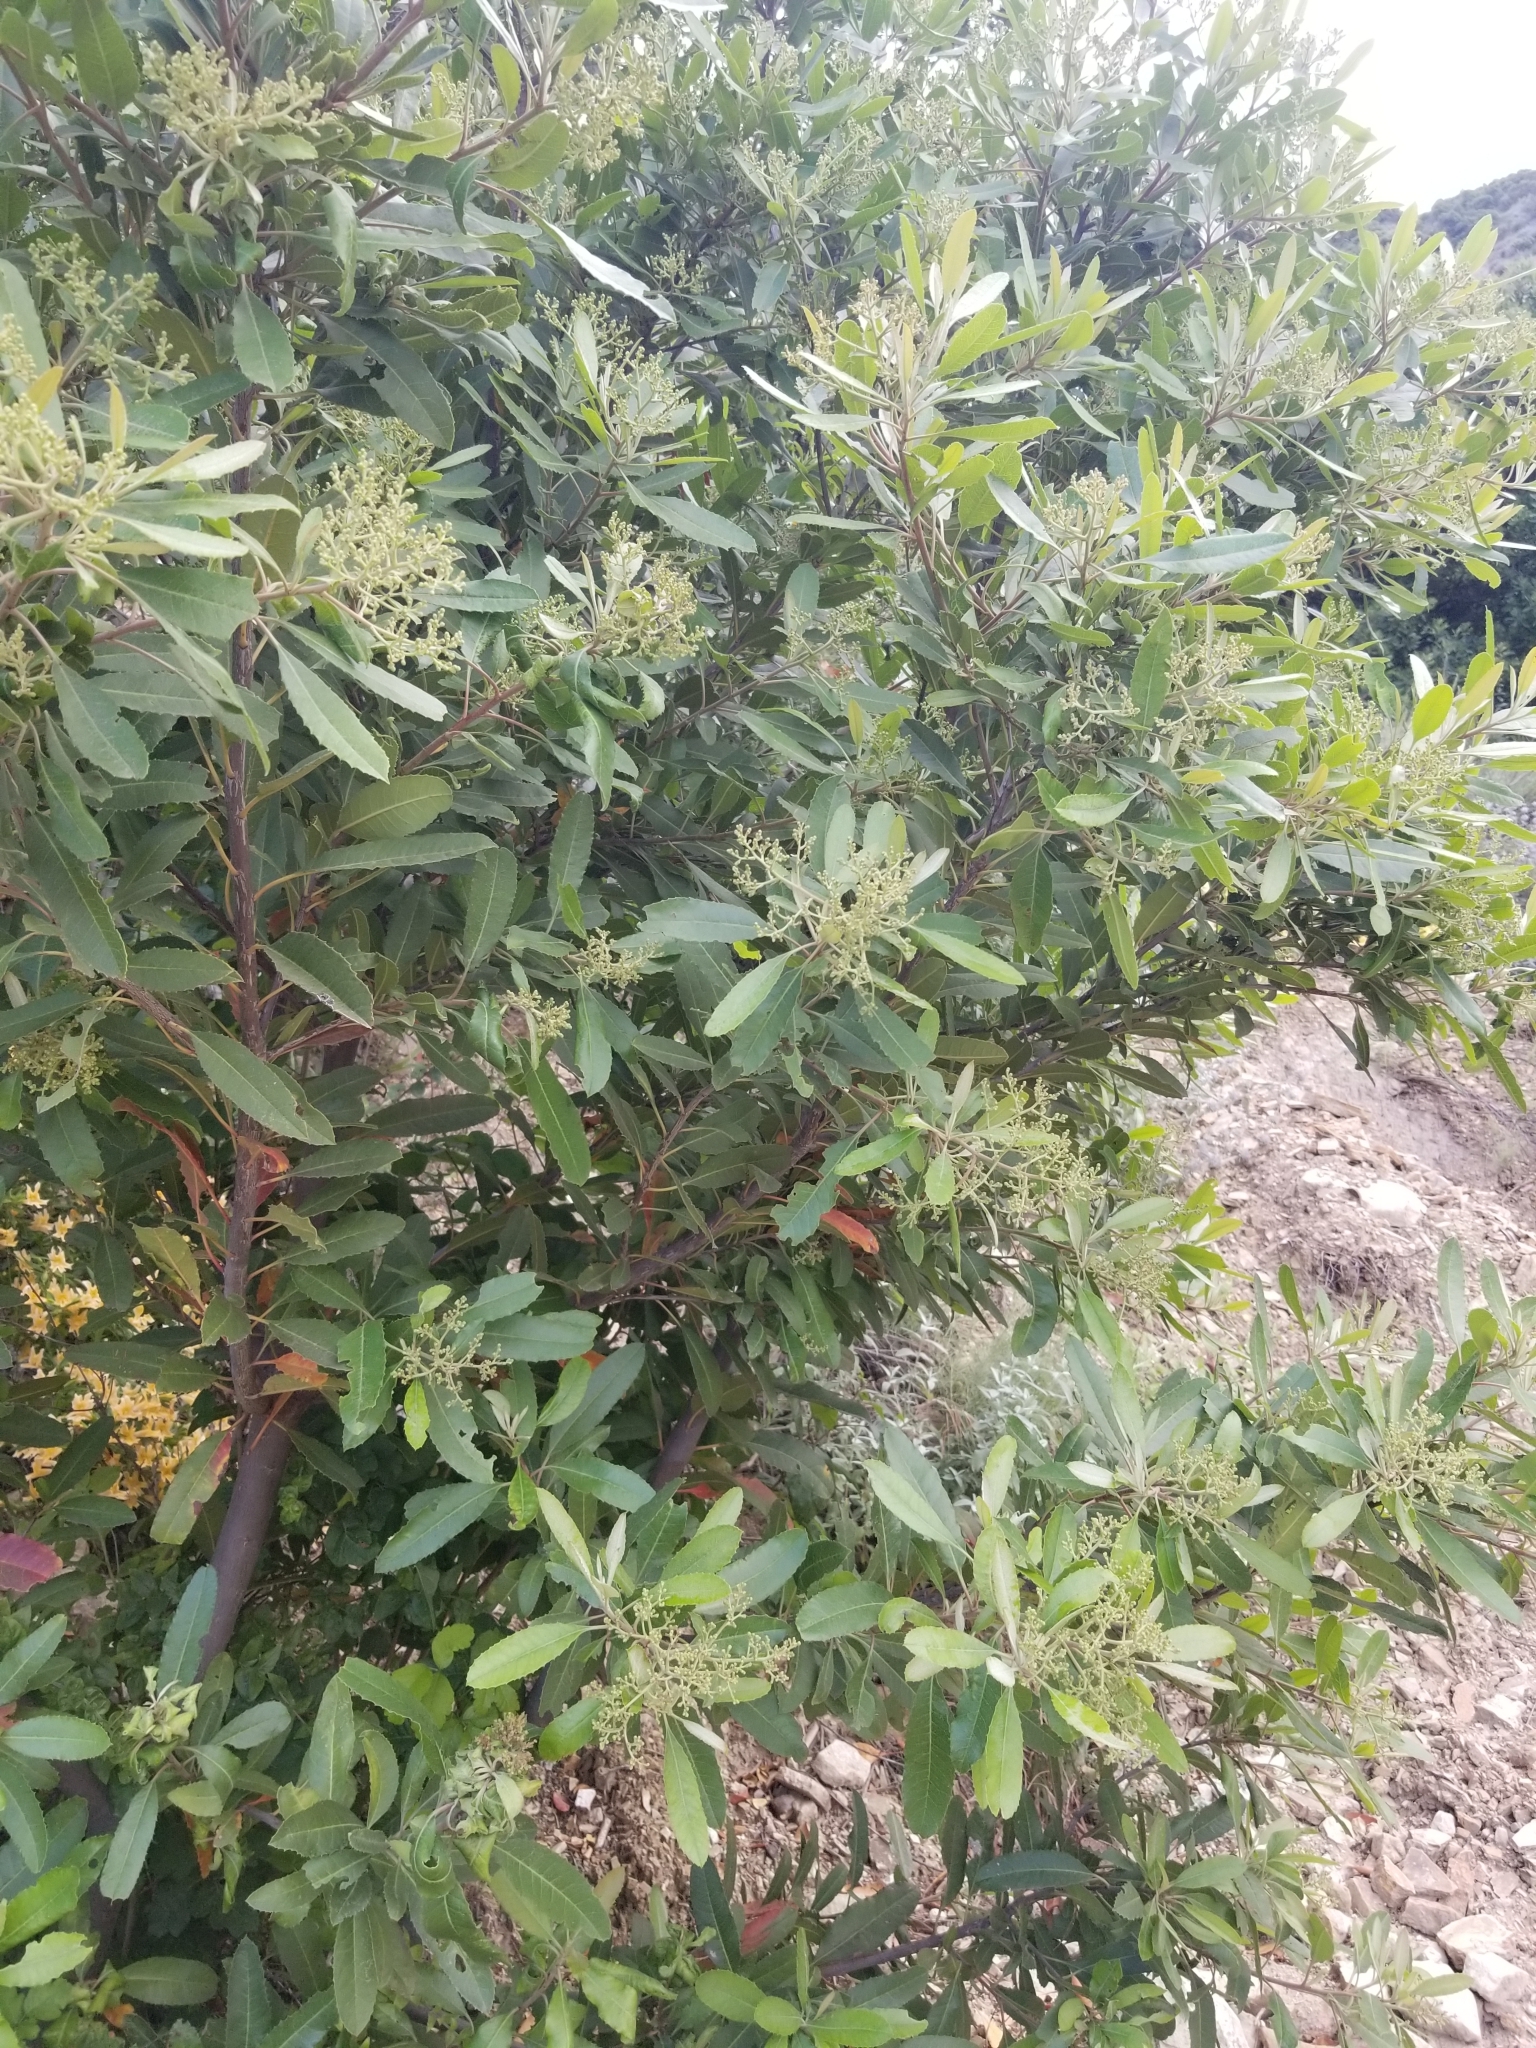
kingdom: Plantae
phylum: Tracheophyta
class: Magnoliopsida
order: Rosales
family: Rosaceae
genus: Heteromeles
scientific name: Heteromeles arbutifolia
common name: California-holly
